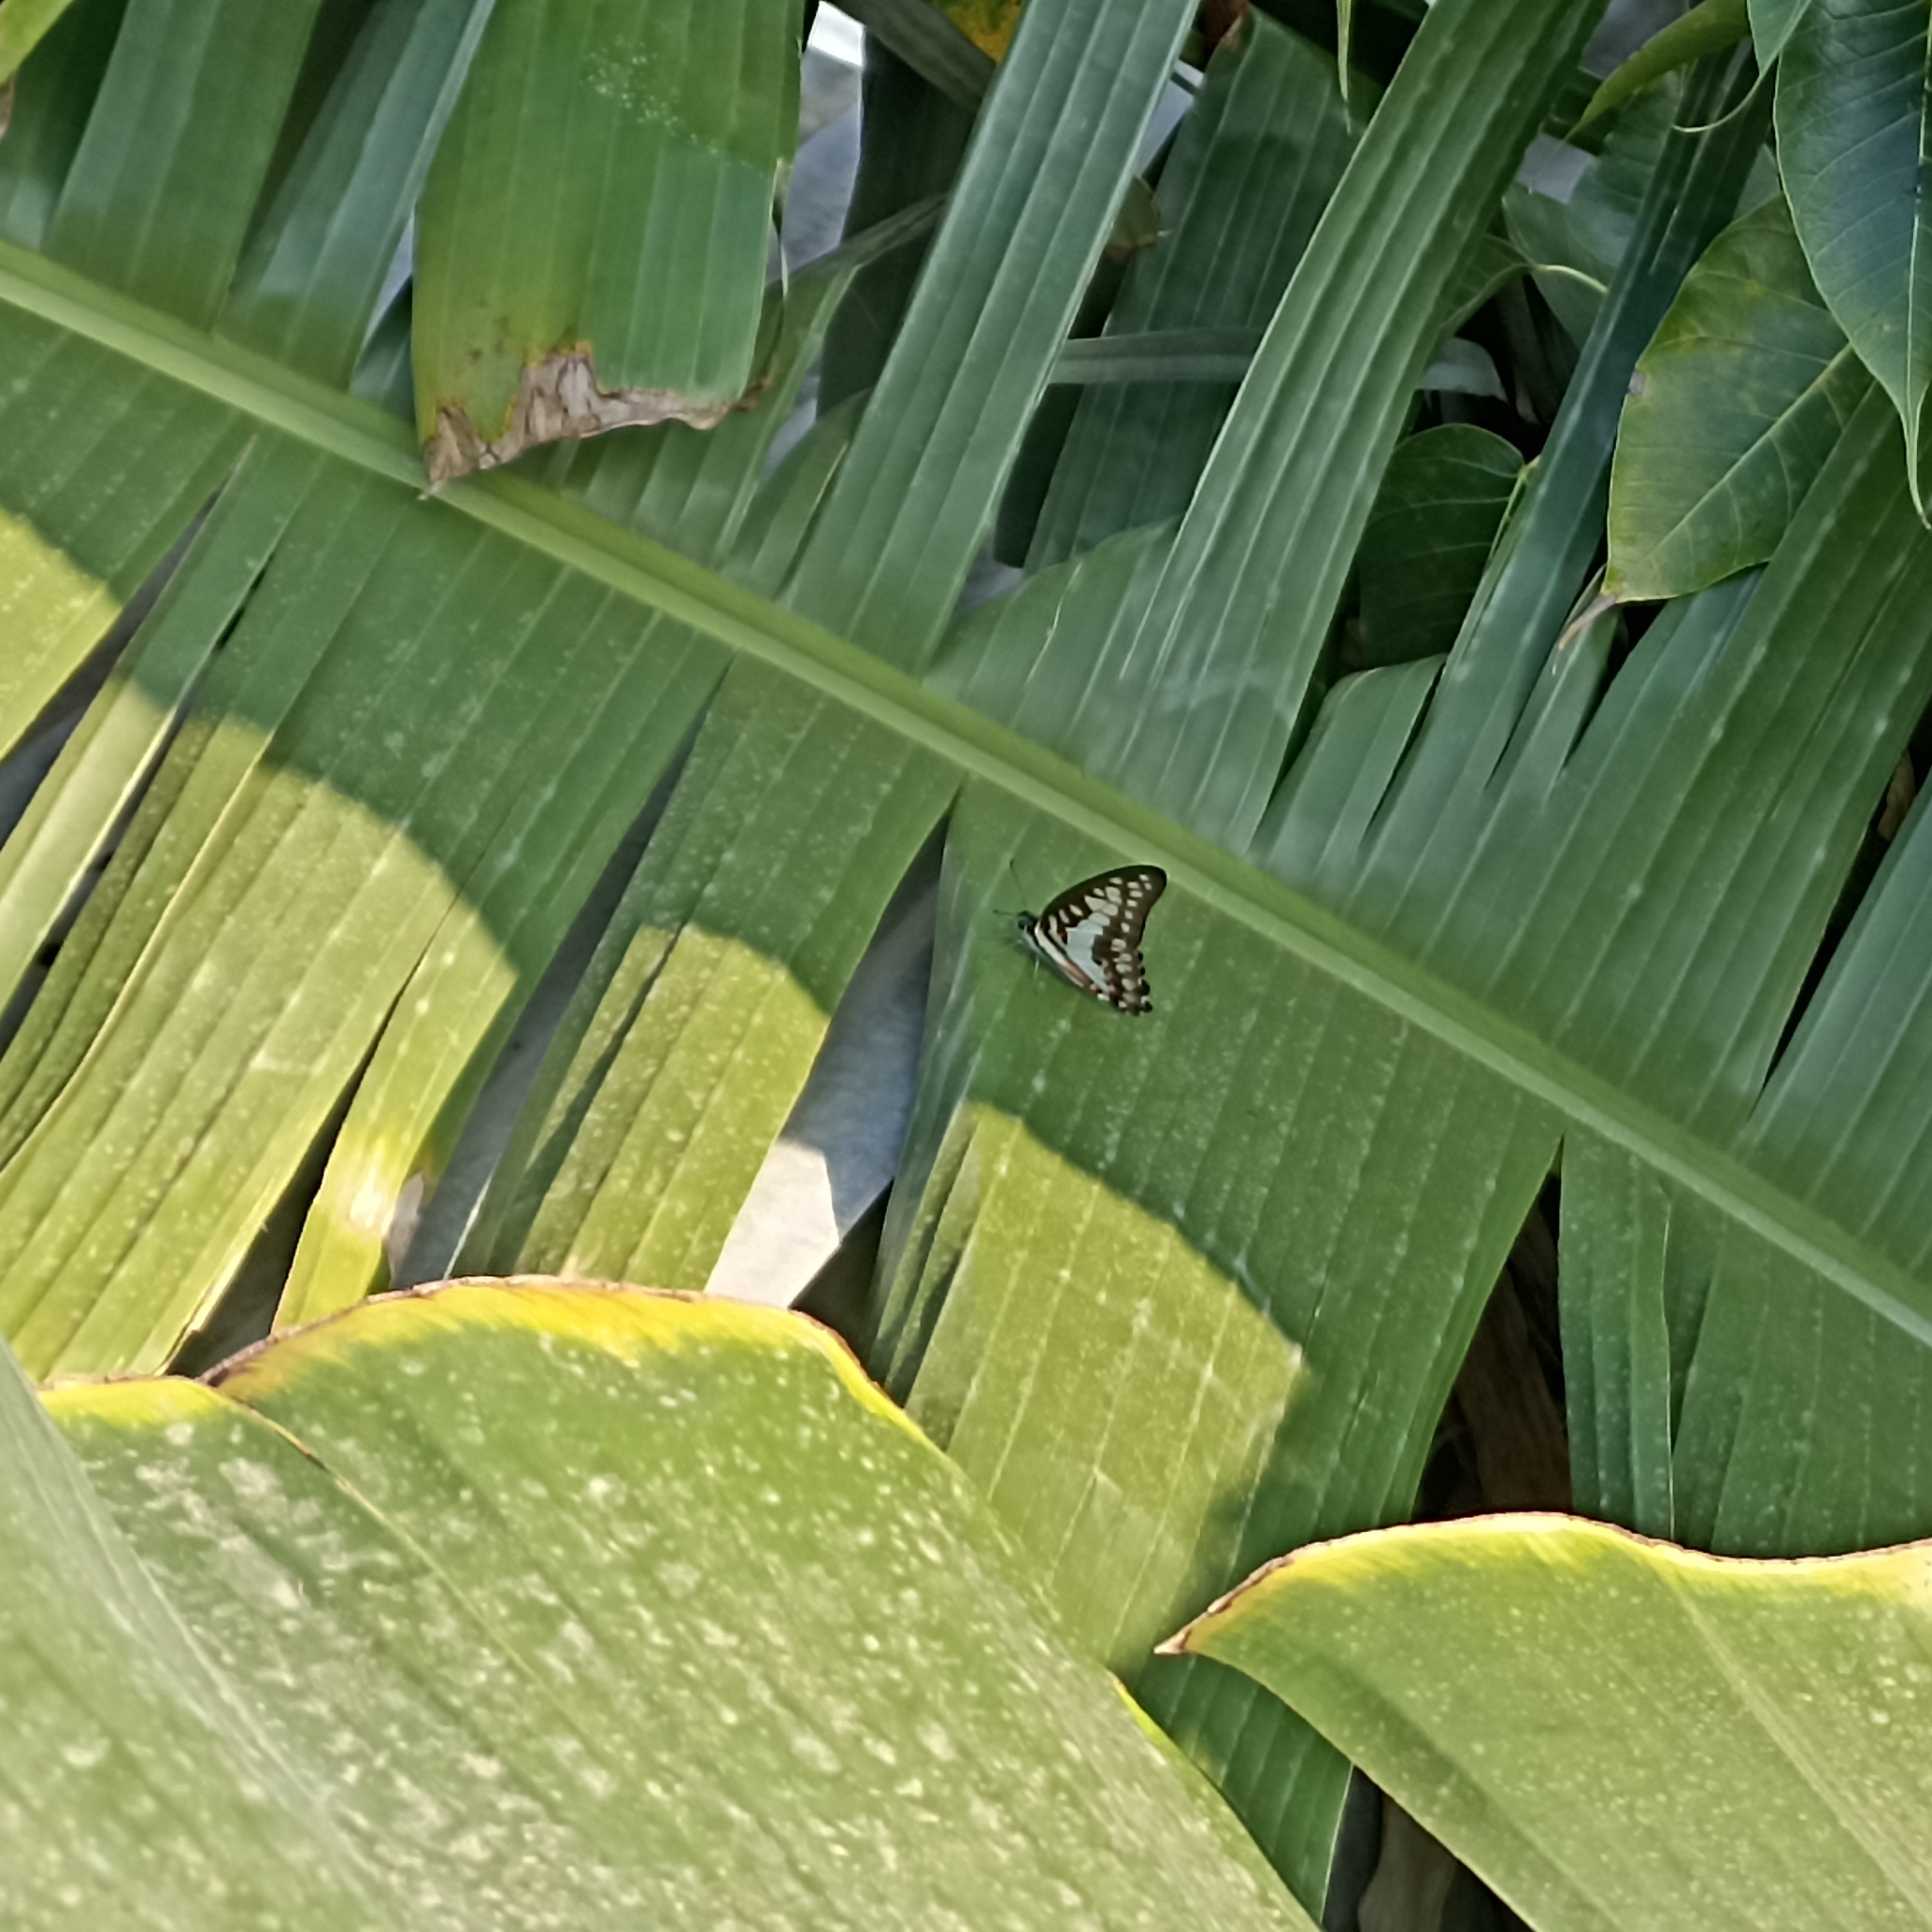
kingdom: Animalia
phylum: Arthropoda
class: Insecta
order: Lepidoptera
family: Papilionidae
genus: Graphium
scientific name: Graphium doson
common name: Common jay
